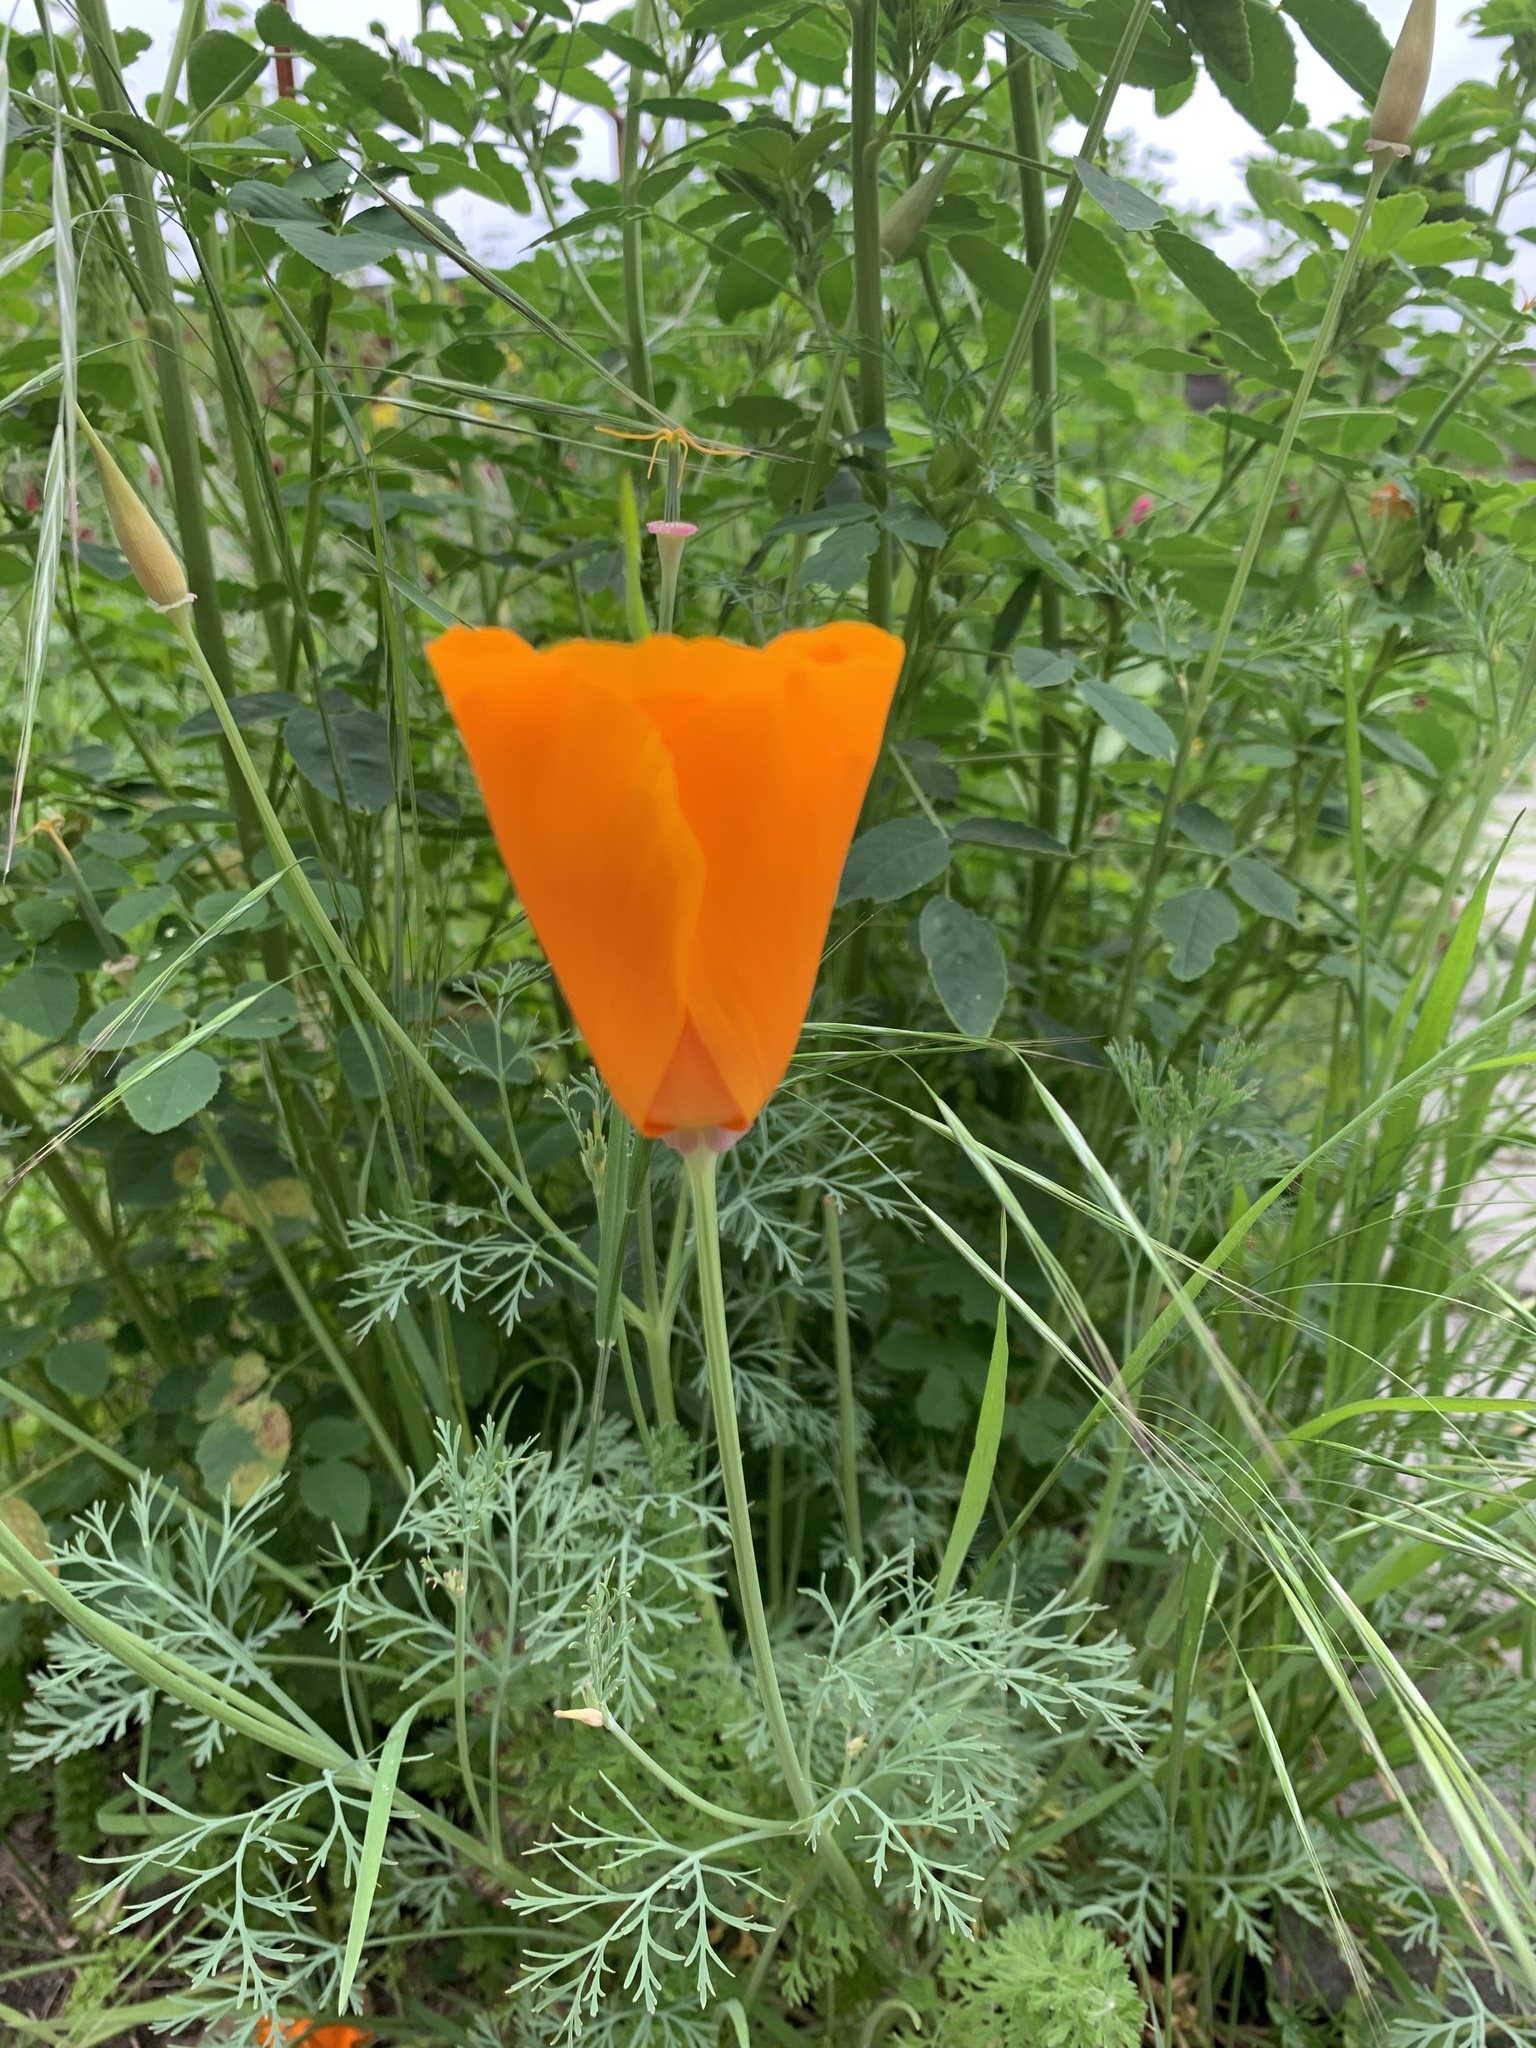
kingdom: Plantae
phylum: Tracheophyta
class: Magnoliopsida
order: Ranunculales
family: Papaveraceae
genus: Eschscholzia
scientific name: Eschscholzia californica
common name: California poppy
